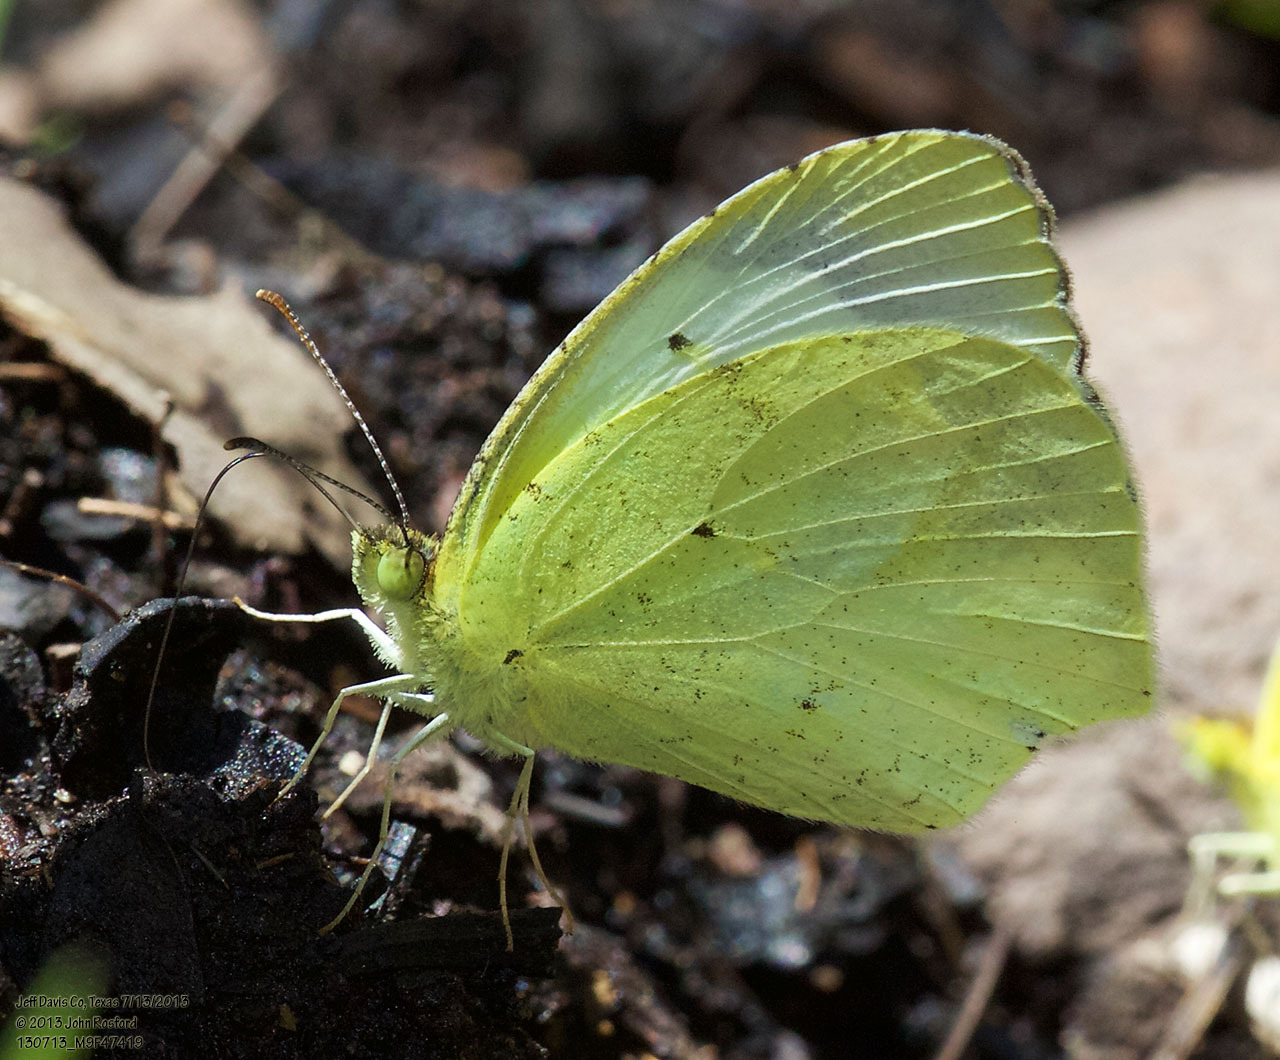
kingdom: Animalia
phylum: Arthropoda
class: Insecta
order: Lepidoptera
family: Pieridae
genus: Abaeis
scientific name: Abaeis mexicana
